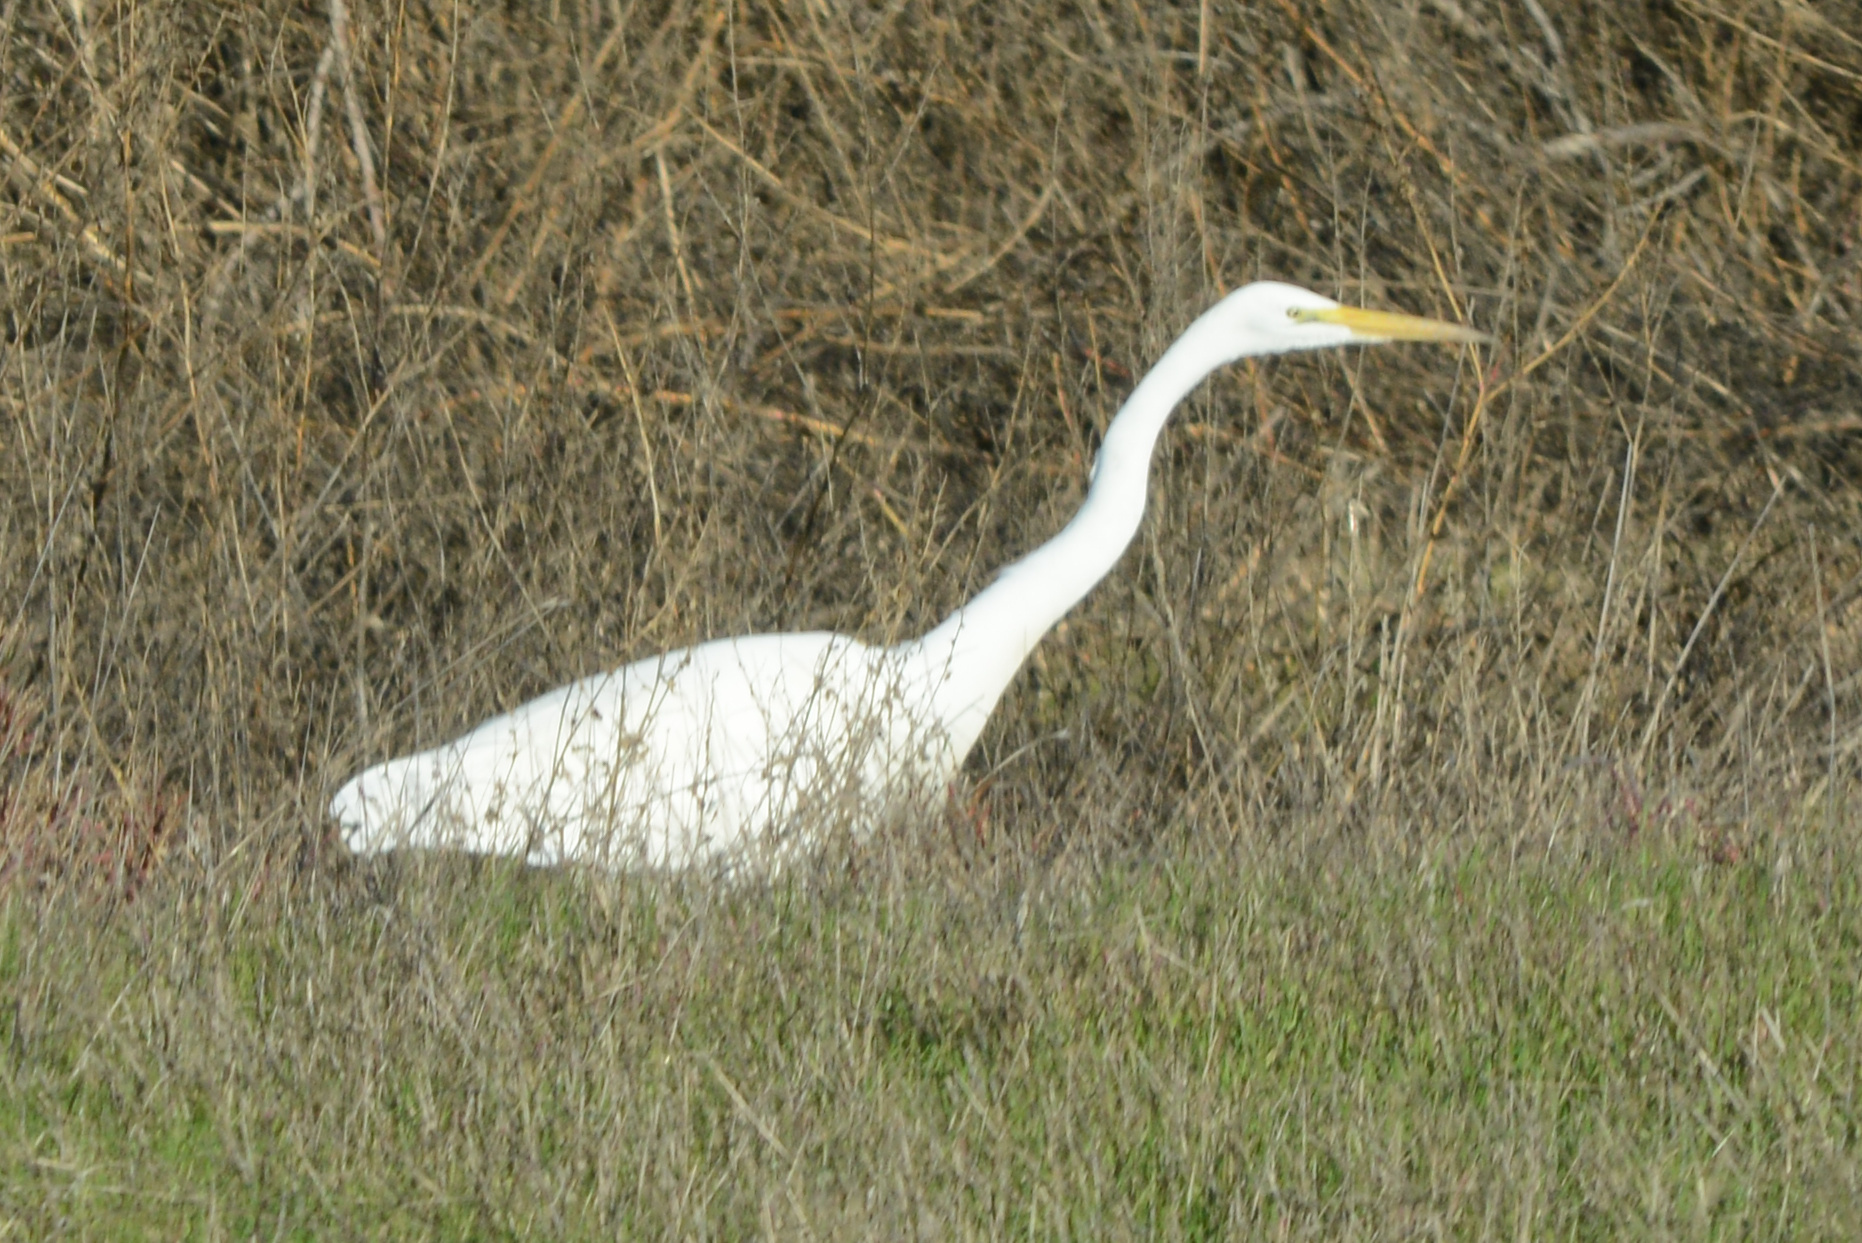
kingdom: Animalia
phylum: Chordata
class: Aves
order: Pelecaniformes
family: Ardeidae
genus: Ardea
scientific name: Ardea alba
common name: Great egret
